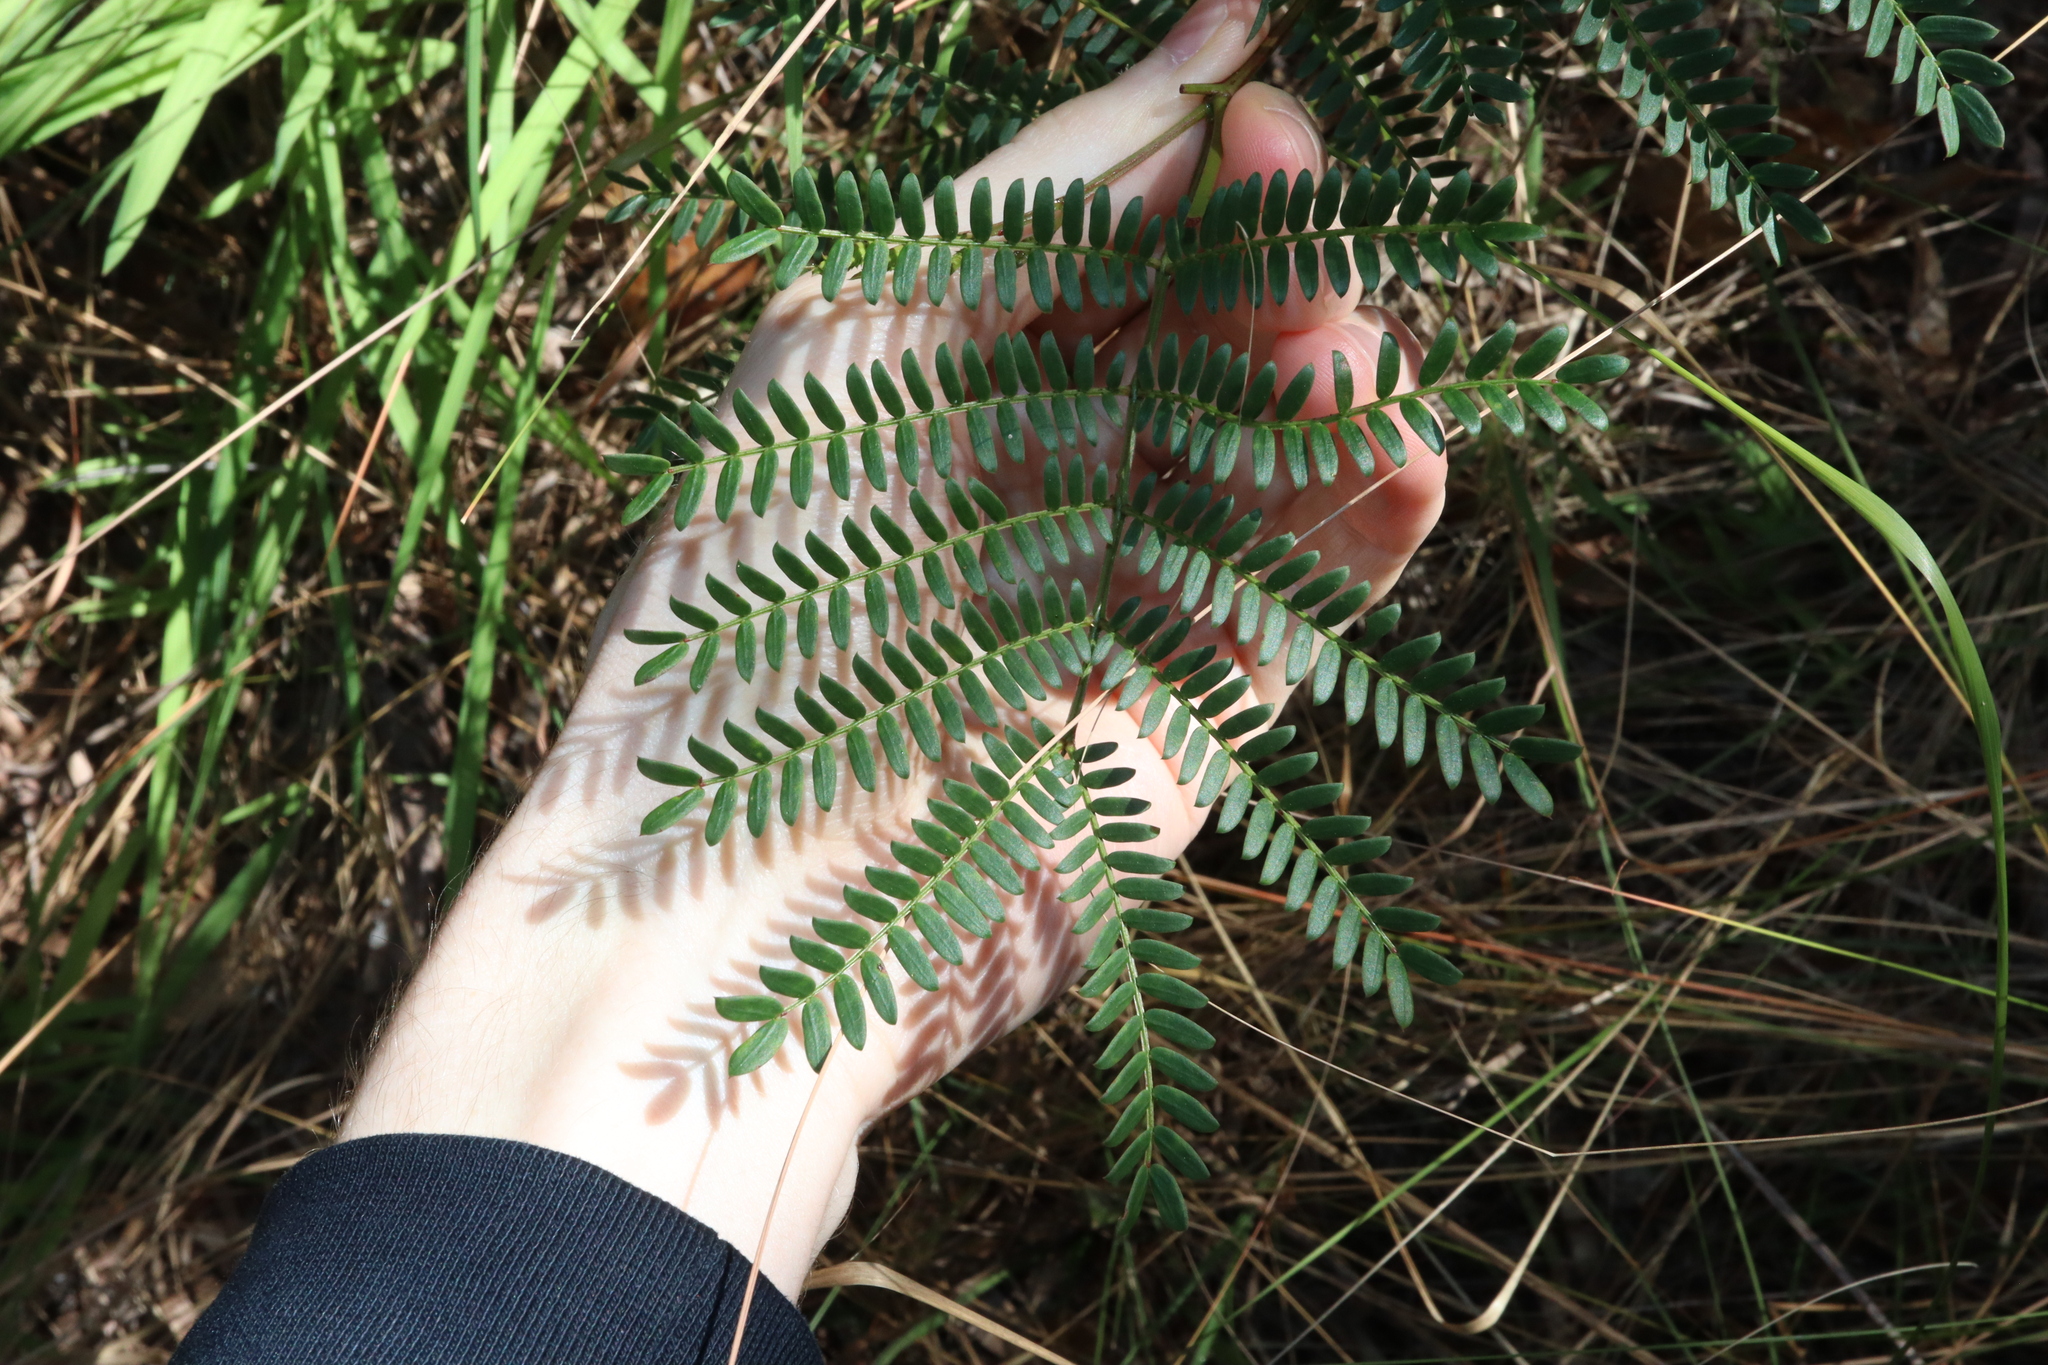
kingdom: Plantae
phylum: Tracheophyta
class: Magnoliopsida
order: Fabales
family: Fabaceae
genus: Acacia
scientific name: Acacia terminalis
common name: Cedar wattle
